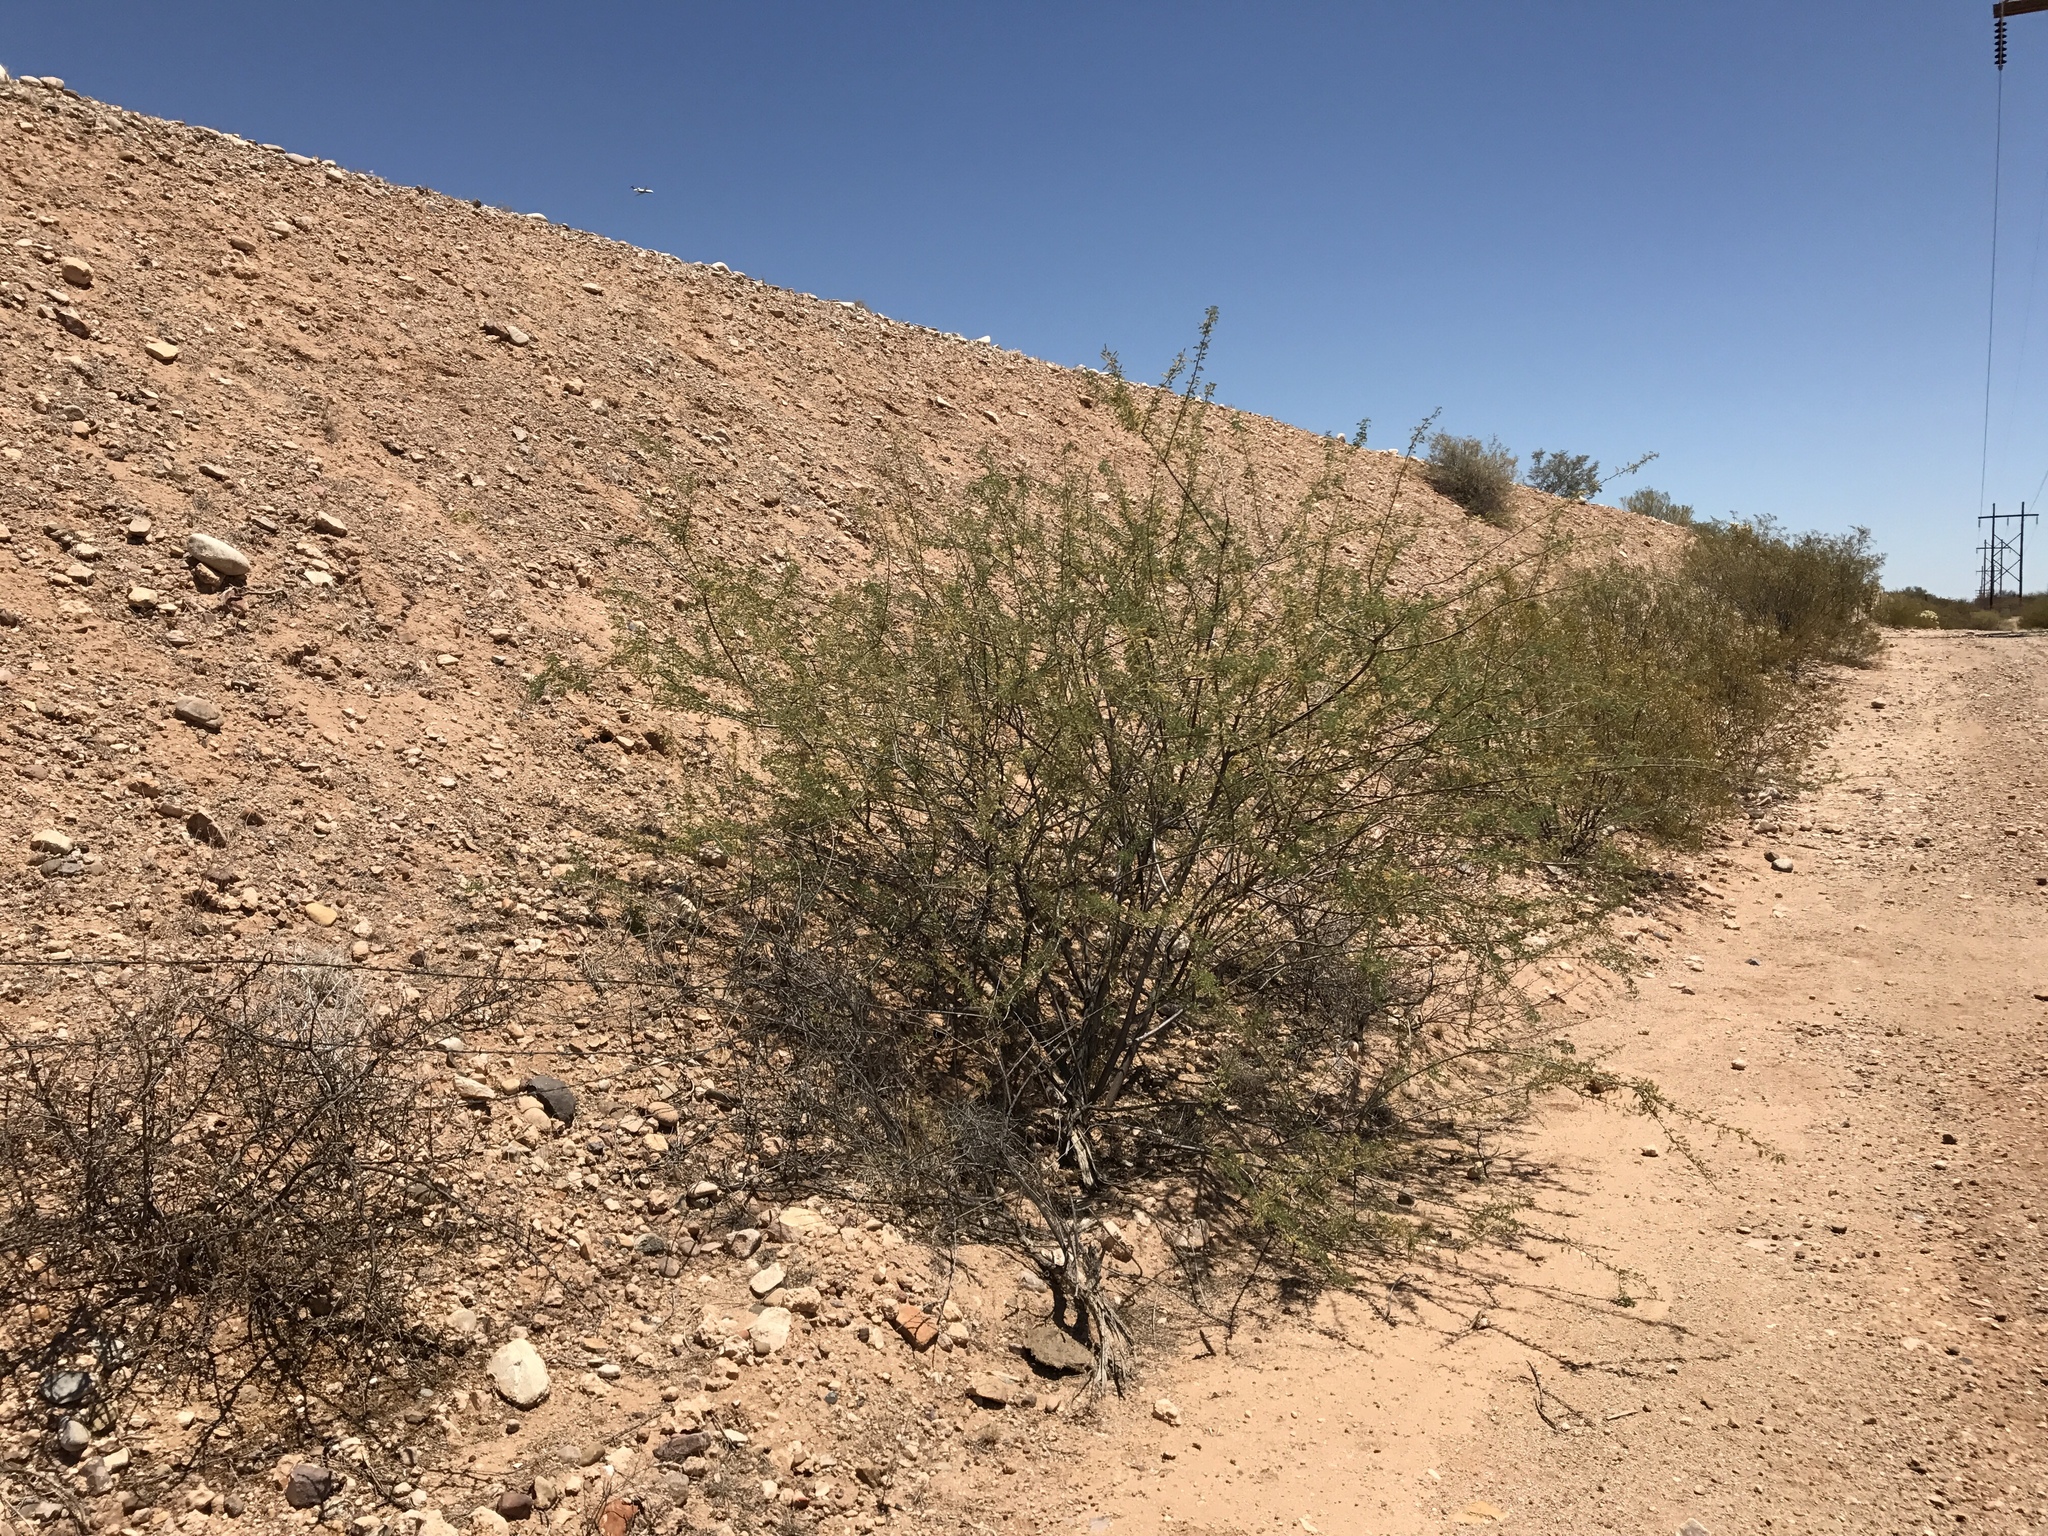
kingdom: Plantae
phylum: Tracheophyta
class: Magnoliopsida
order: Fabales
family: Fabaceae
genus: Senegalia
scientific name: Senegalia greggii
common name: Texas-mimosa
